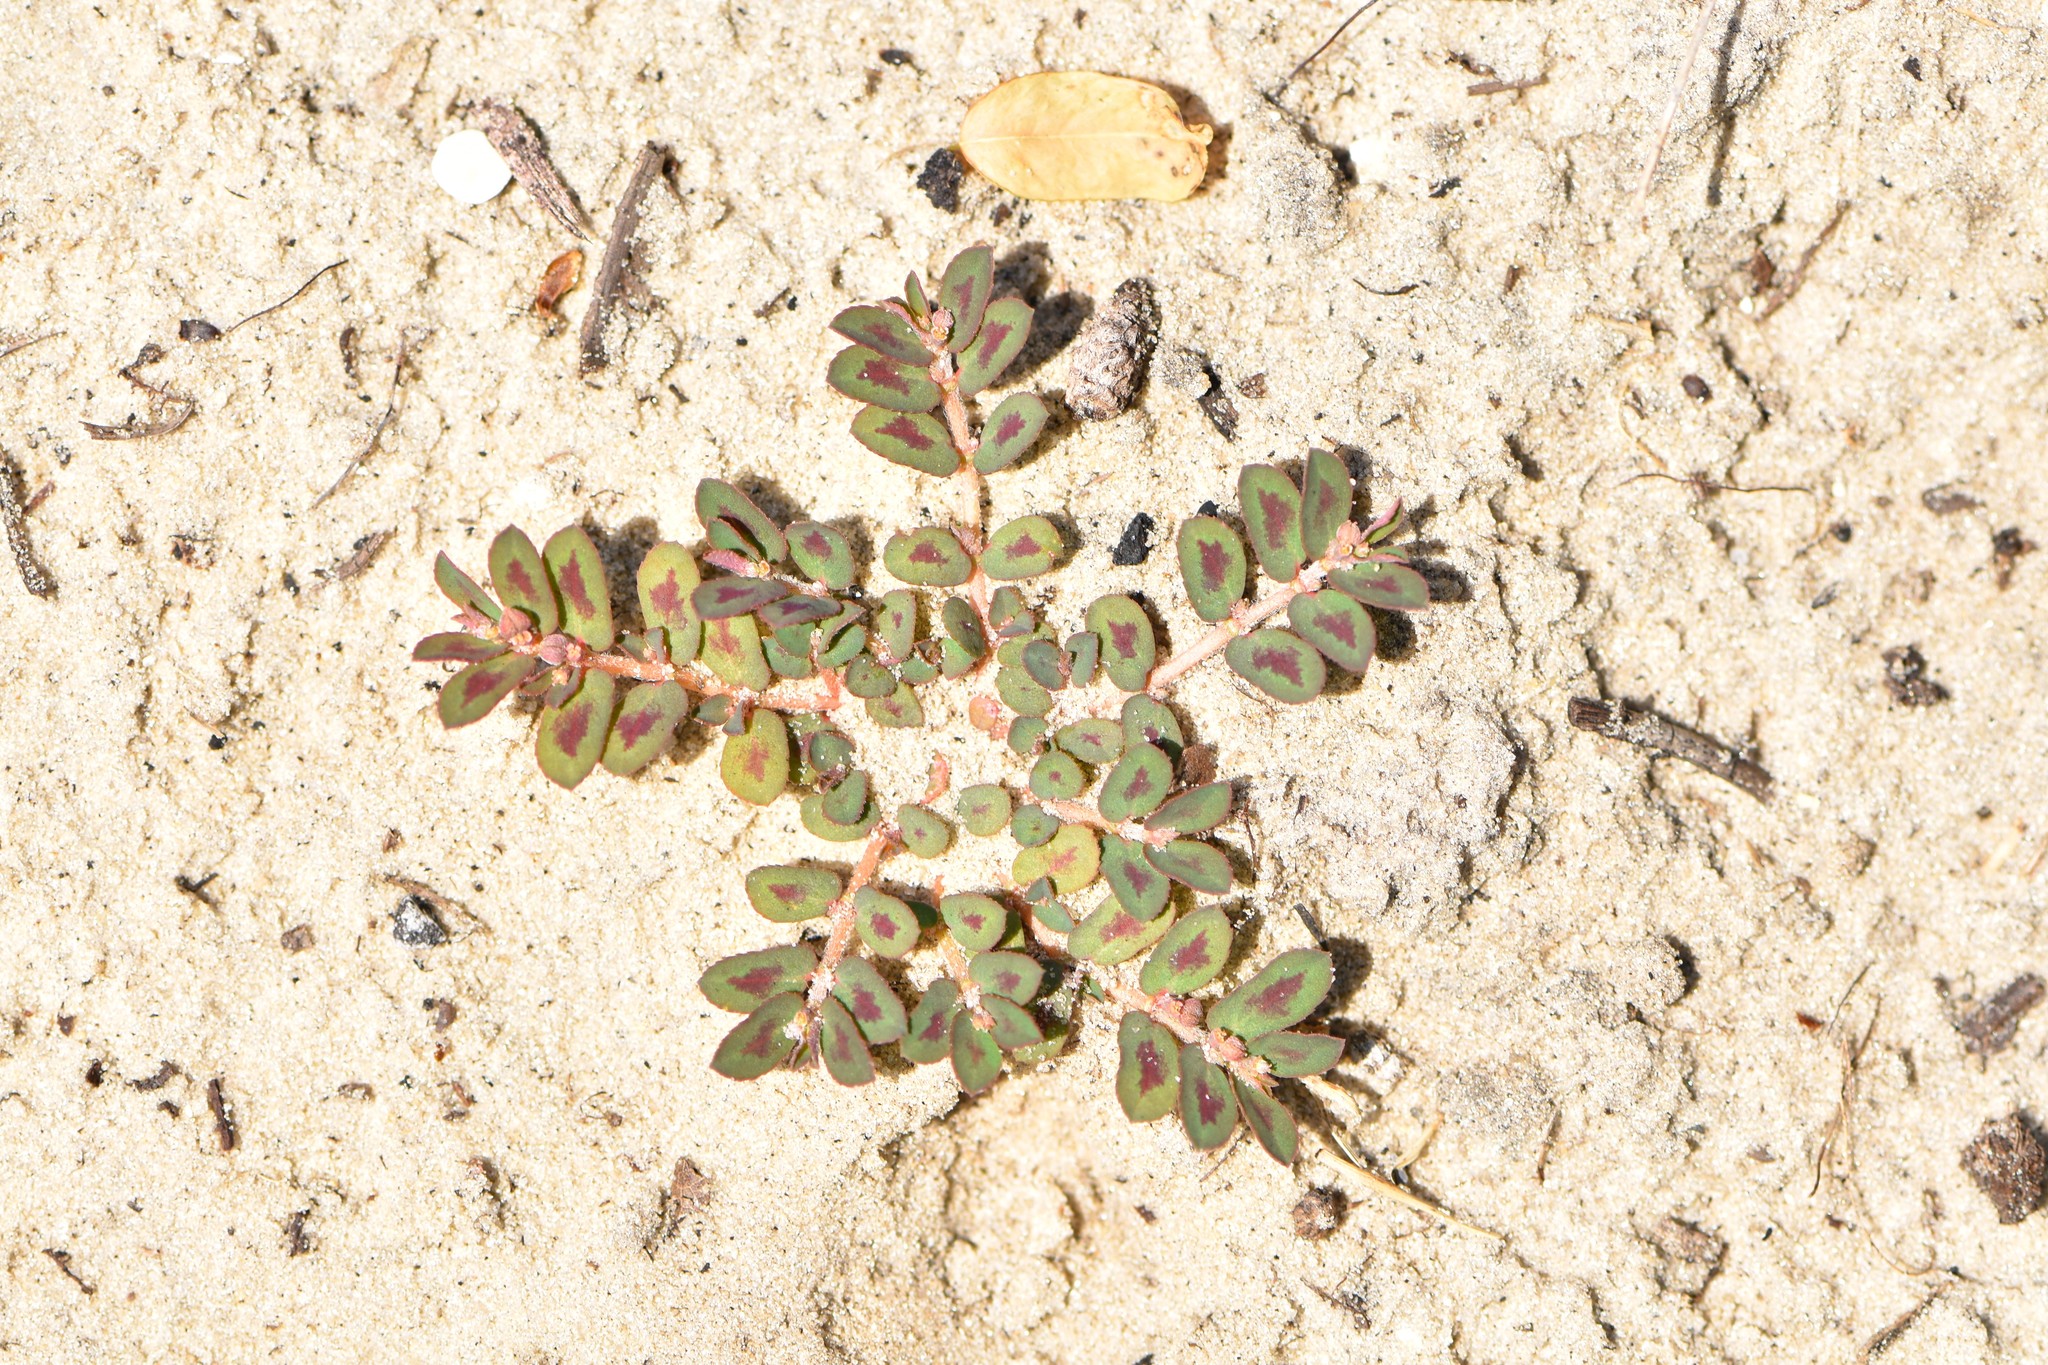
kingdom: Plantae
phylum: Tracheophyta
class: Magnoliopsida
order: Malpighiales
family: Euphorbiaceae
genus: Euphorbia
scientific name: Euphorbia maculata
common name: Spotted spurge
